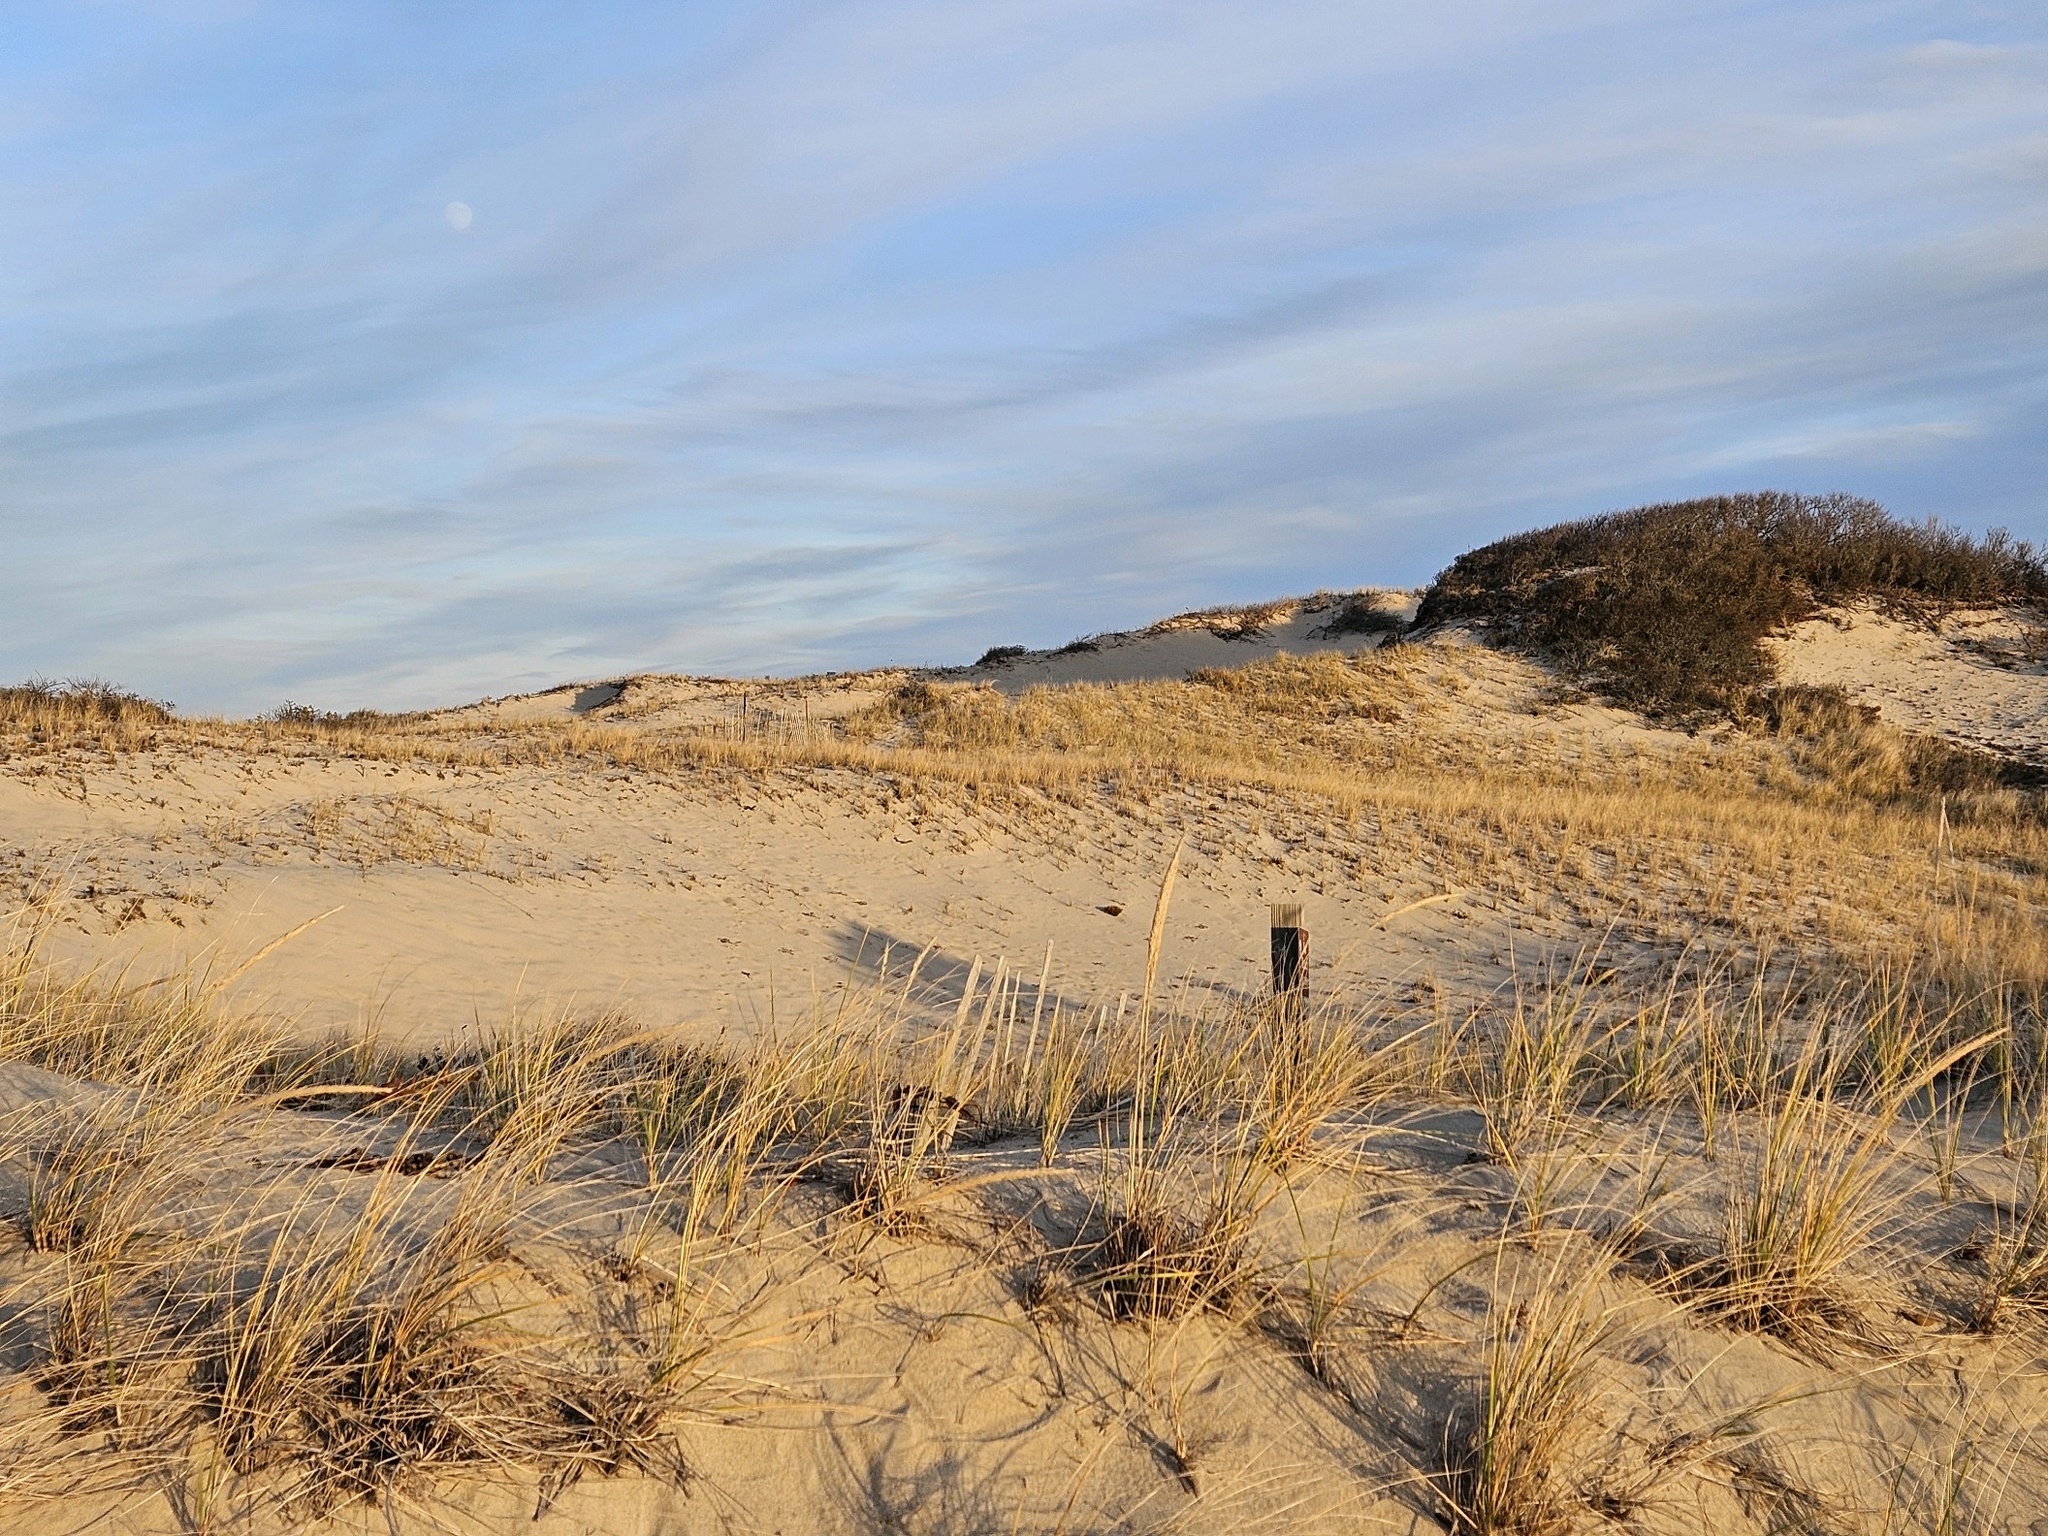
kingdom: Plantae
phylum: Tracheophyta
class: Liliopsida
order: Poales
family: Poaceae
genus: Calamagrostis
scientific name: Calamagrostis breviligulata
